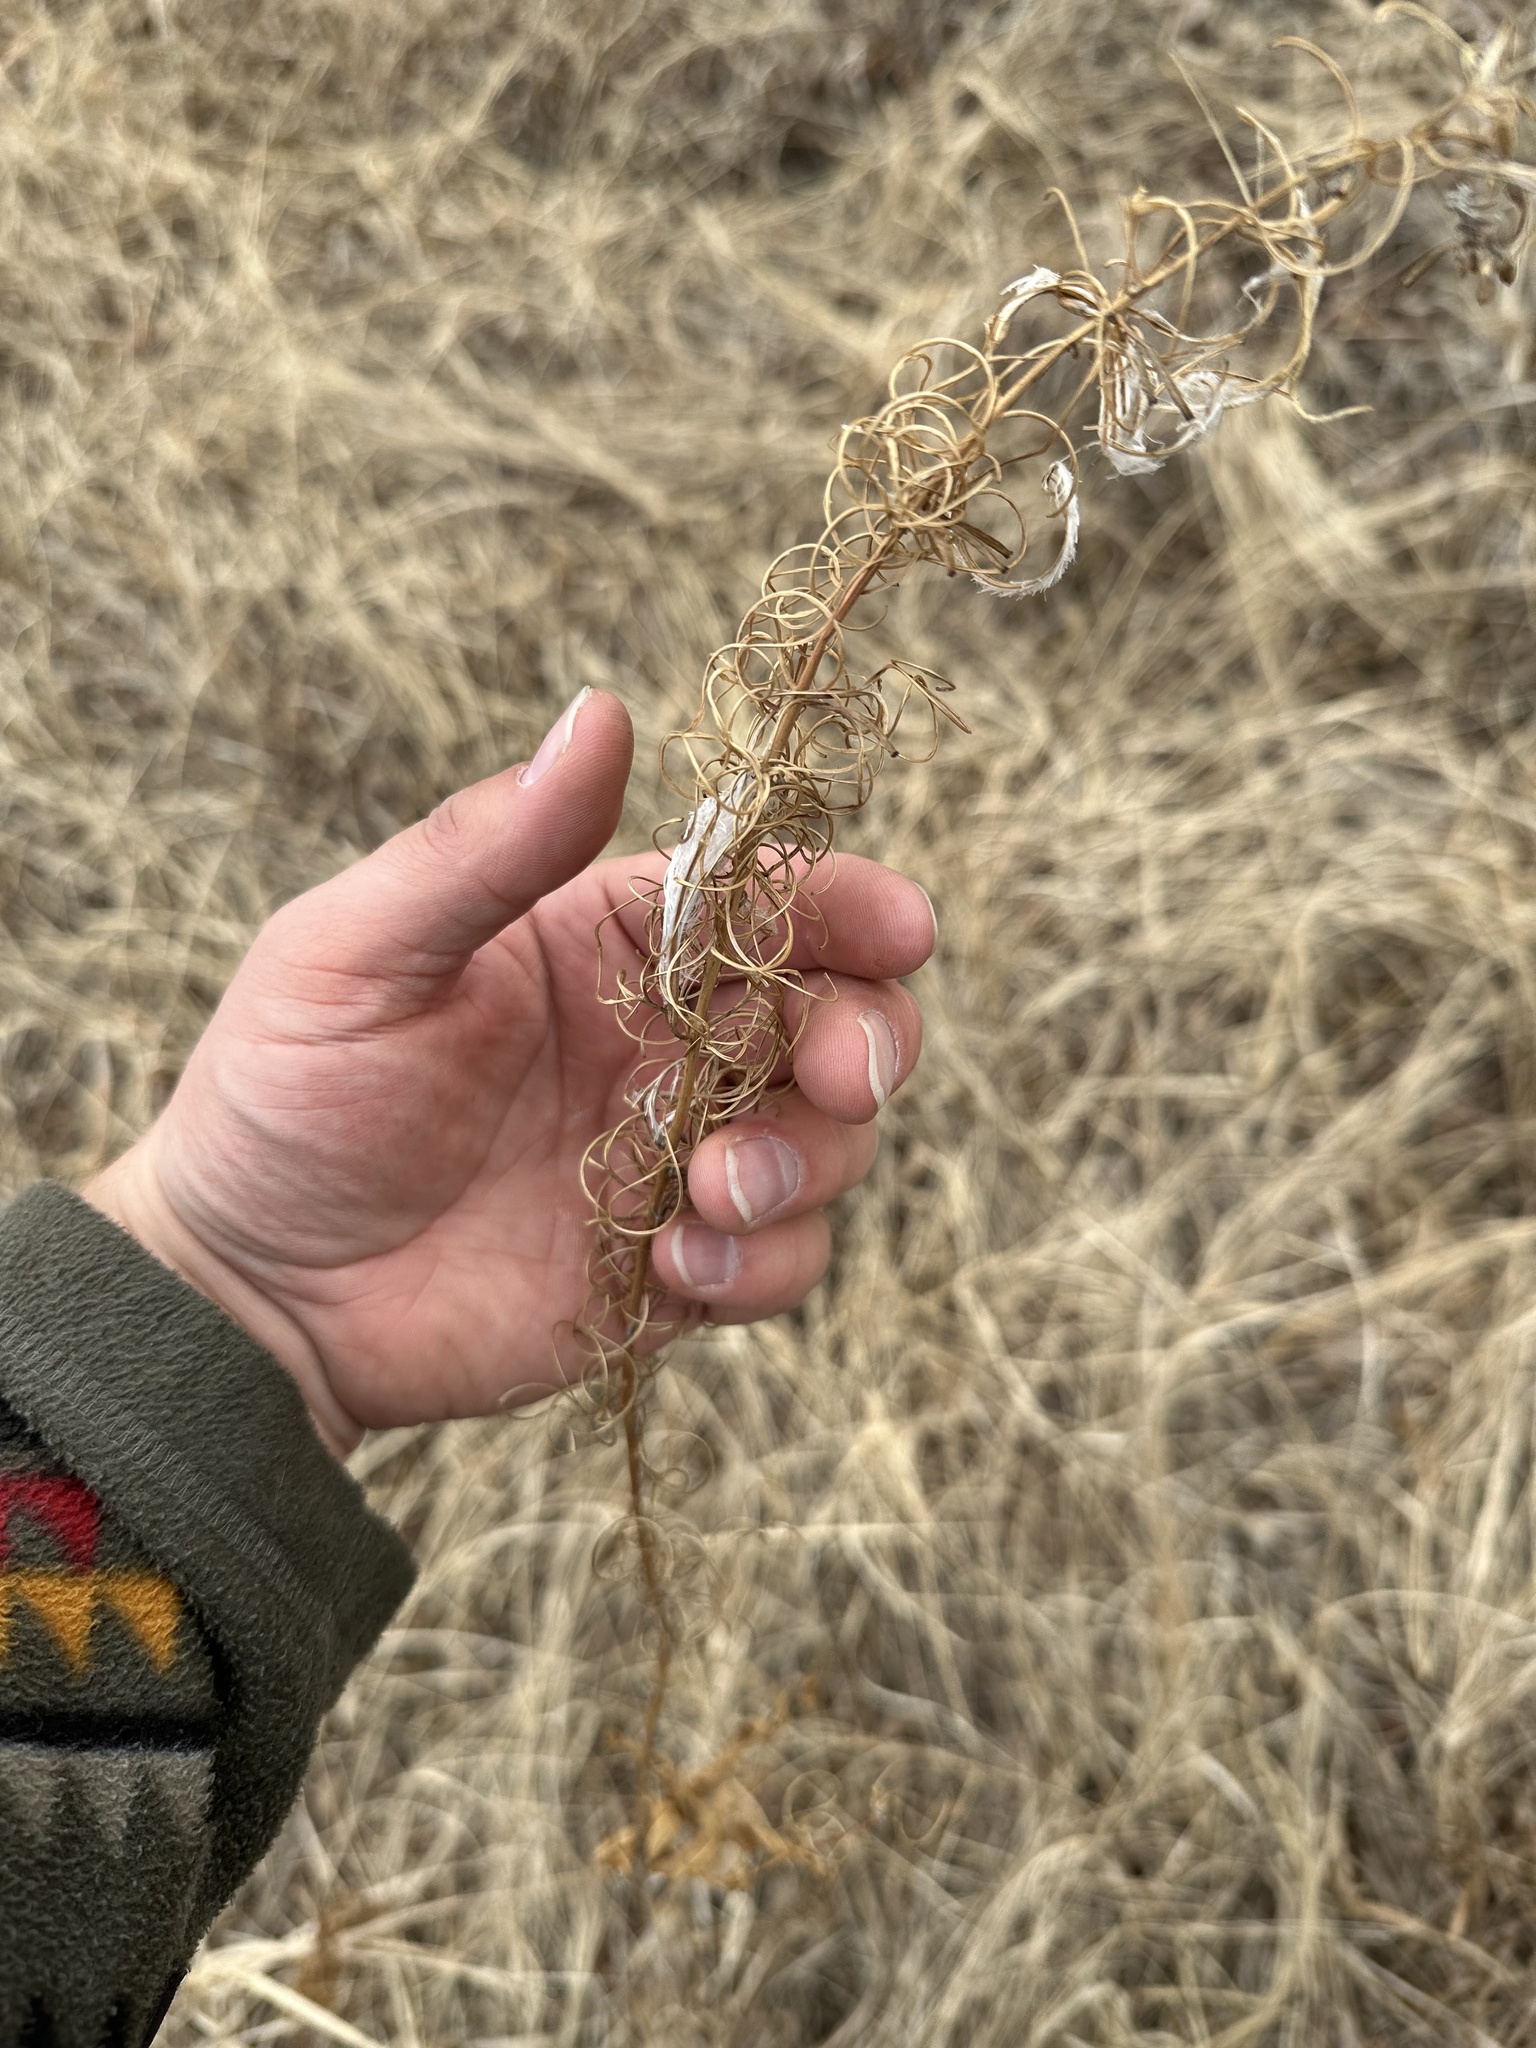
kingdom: Plantae
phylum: Tracheophyta
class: Magnoliopsida
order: Myrtales
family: Onagraceae
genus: Chamaenerion
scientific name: Chamaenerion angustifolium
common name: Fireweed
